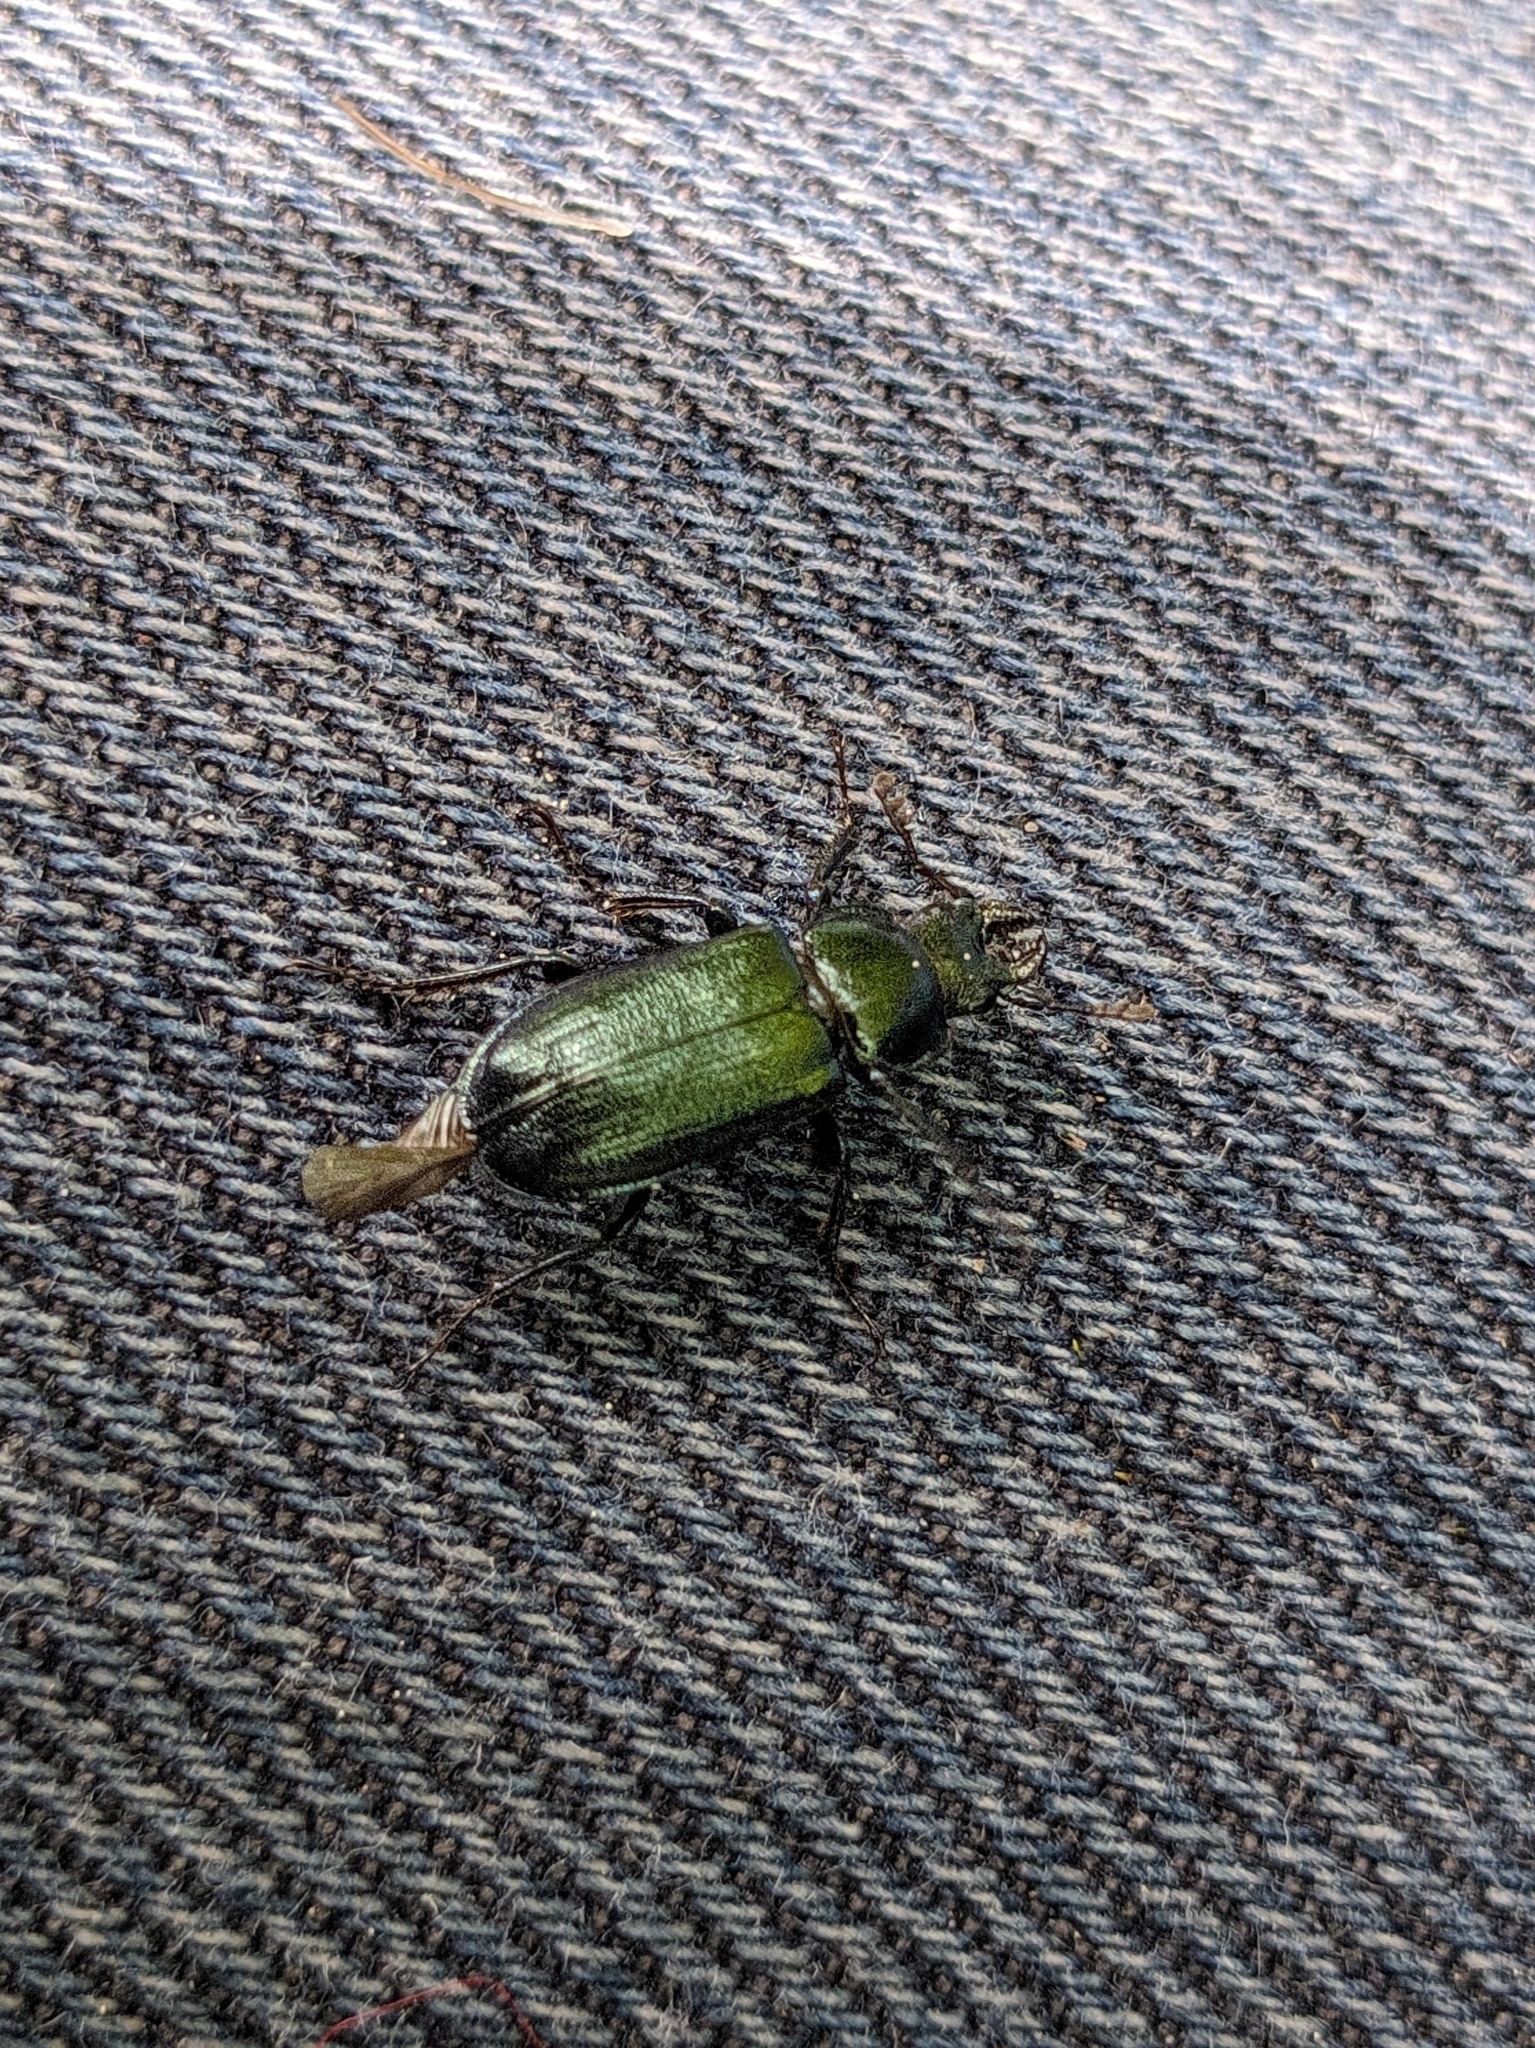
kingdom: Animalia
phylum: Arthropoda
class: Insecta
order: Coleoptera
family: Lucanidae
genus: Platycerus
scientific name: Platycerus caraboides
